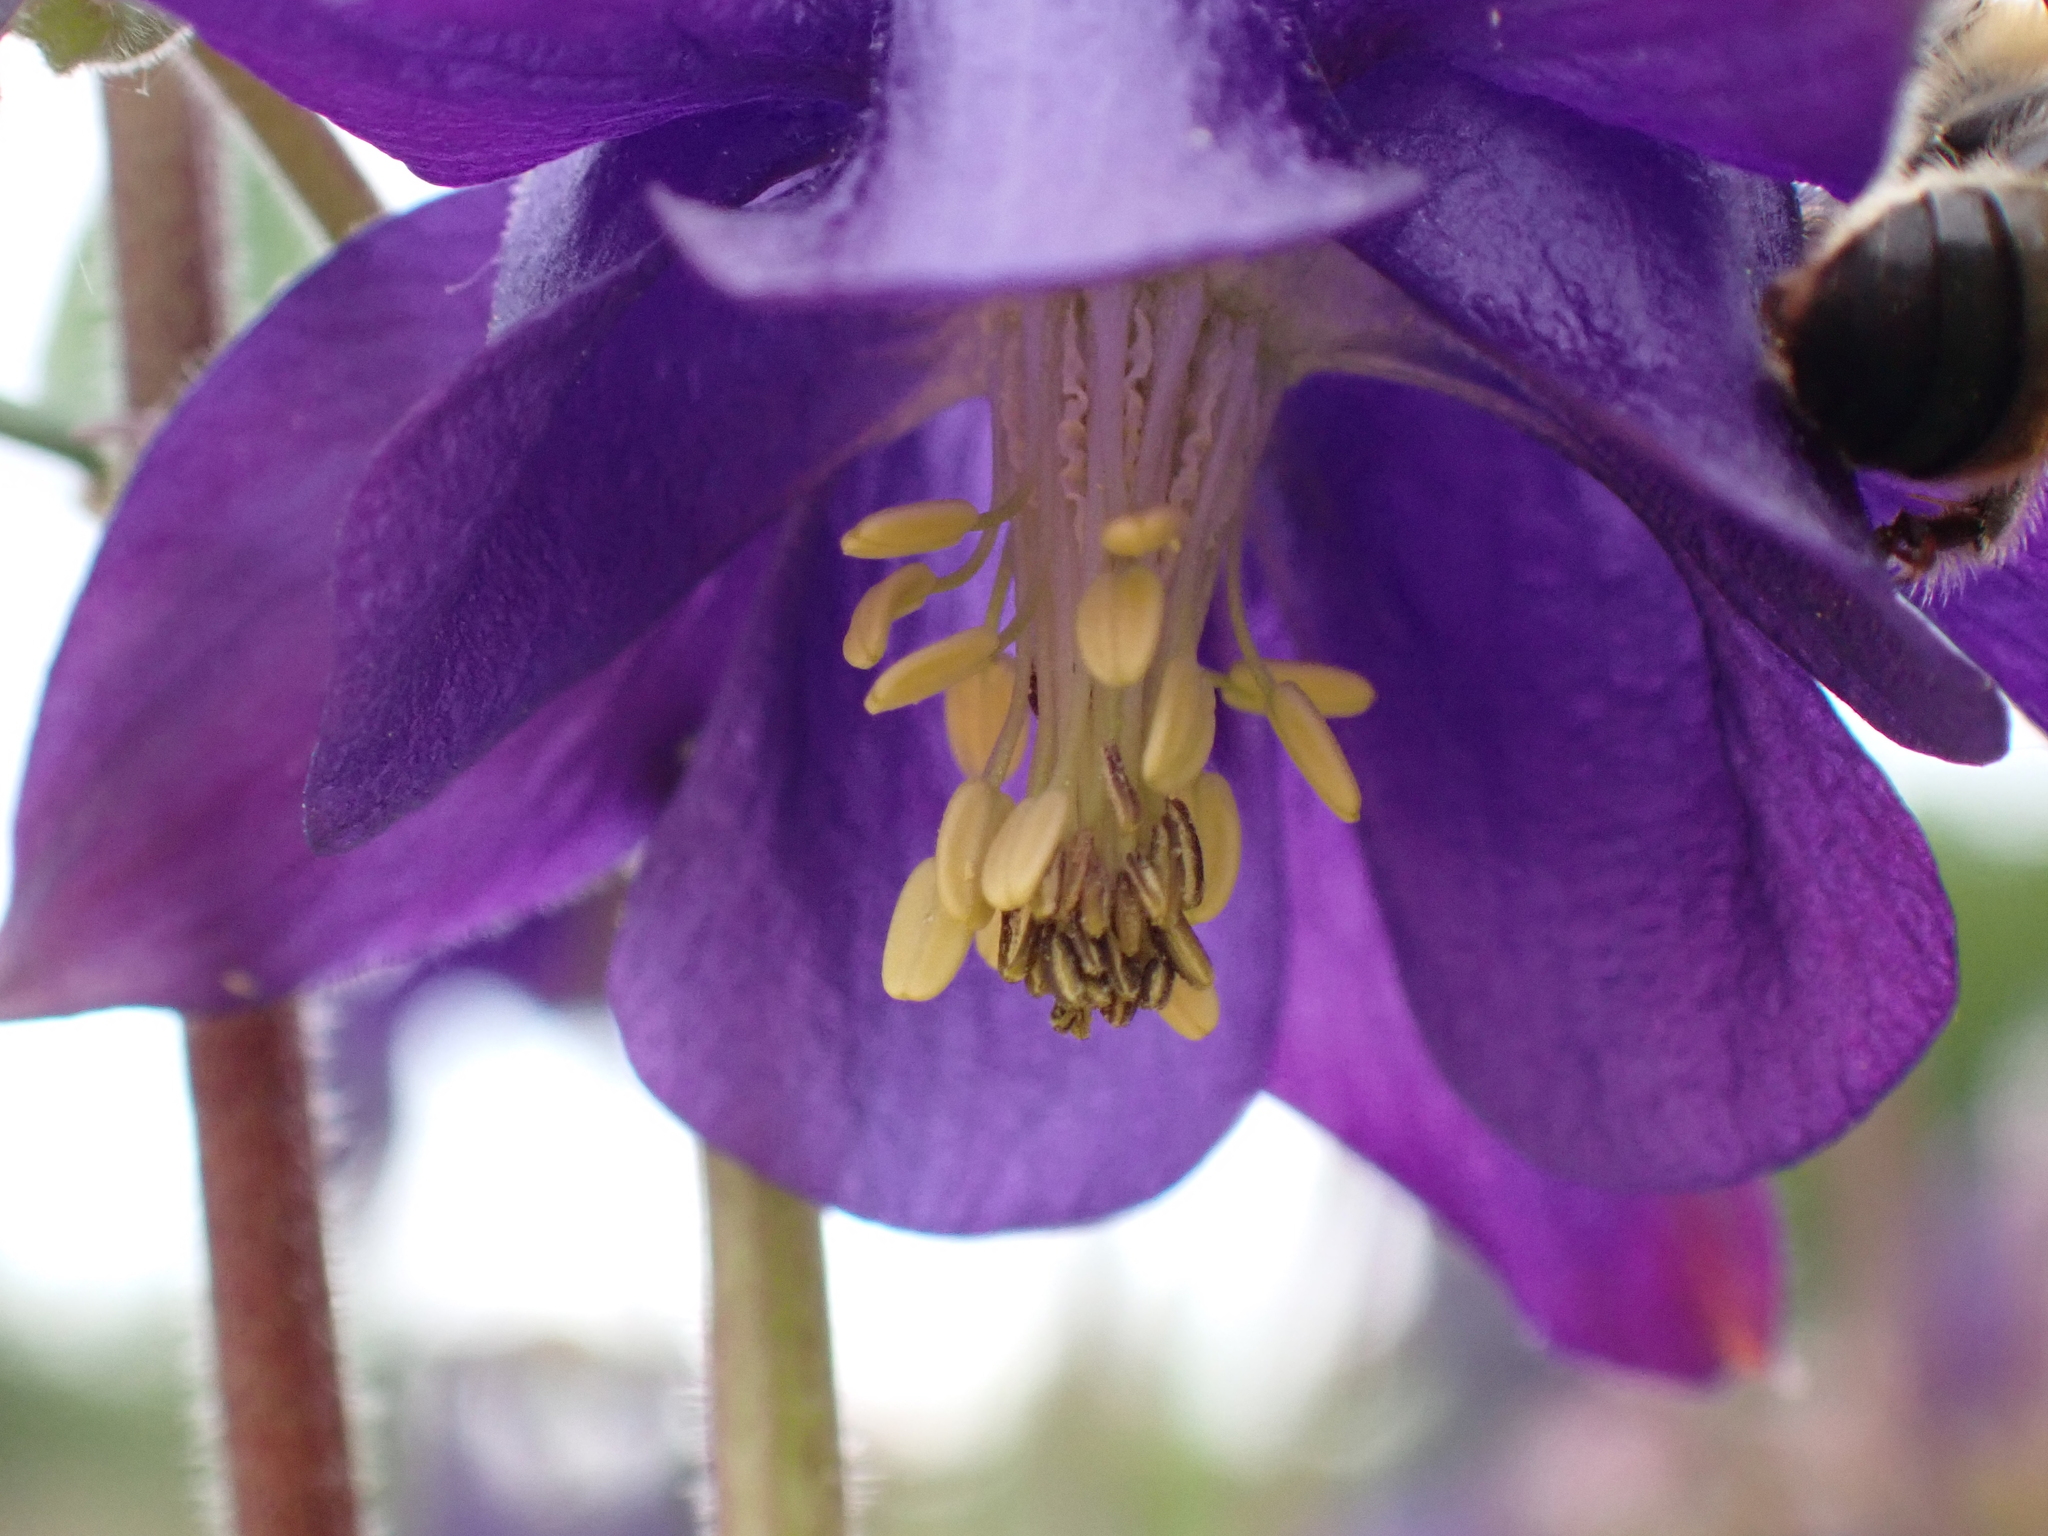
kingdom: Plantae
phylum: Tracheophyta
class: Magnoliopsida
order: Ranunculales
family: Ranunculaceae
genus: Aquilegia
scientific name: Aquilegia vulgaris
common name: Columbine
